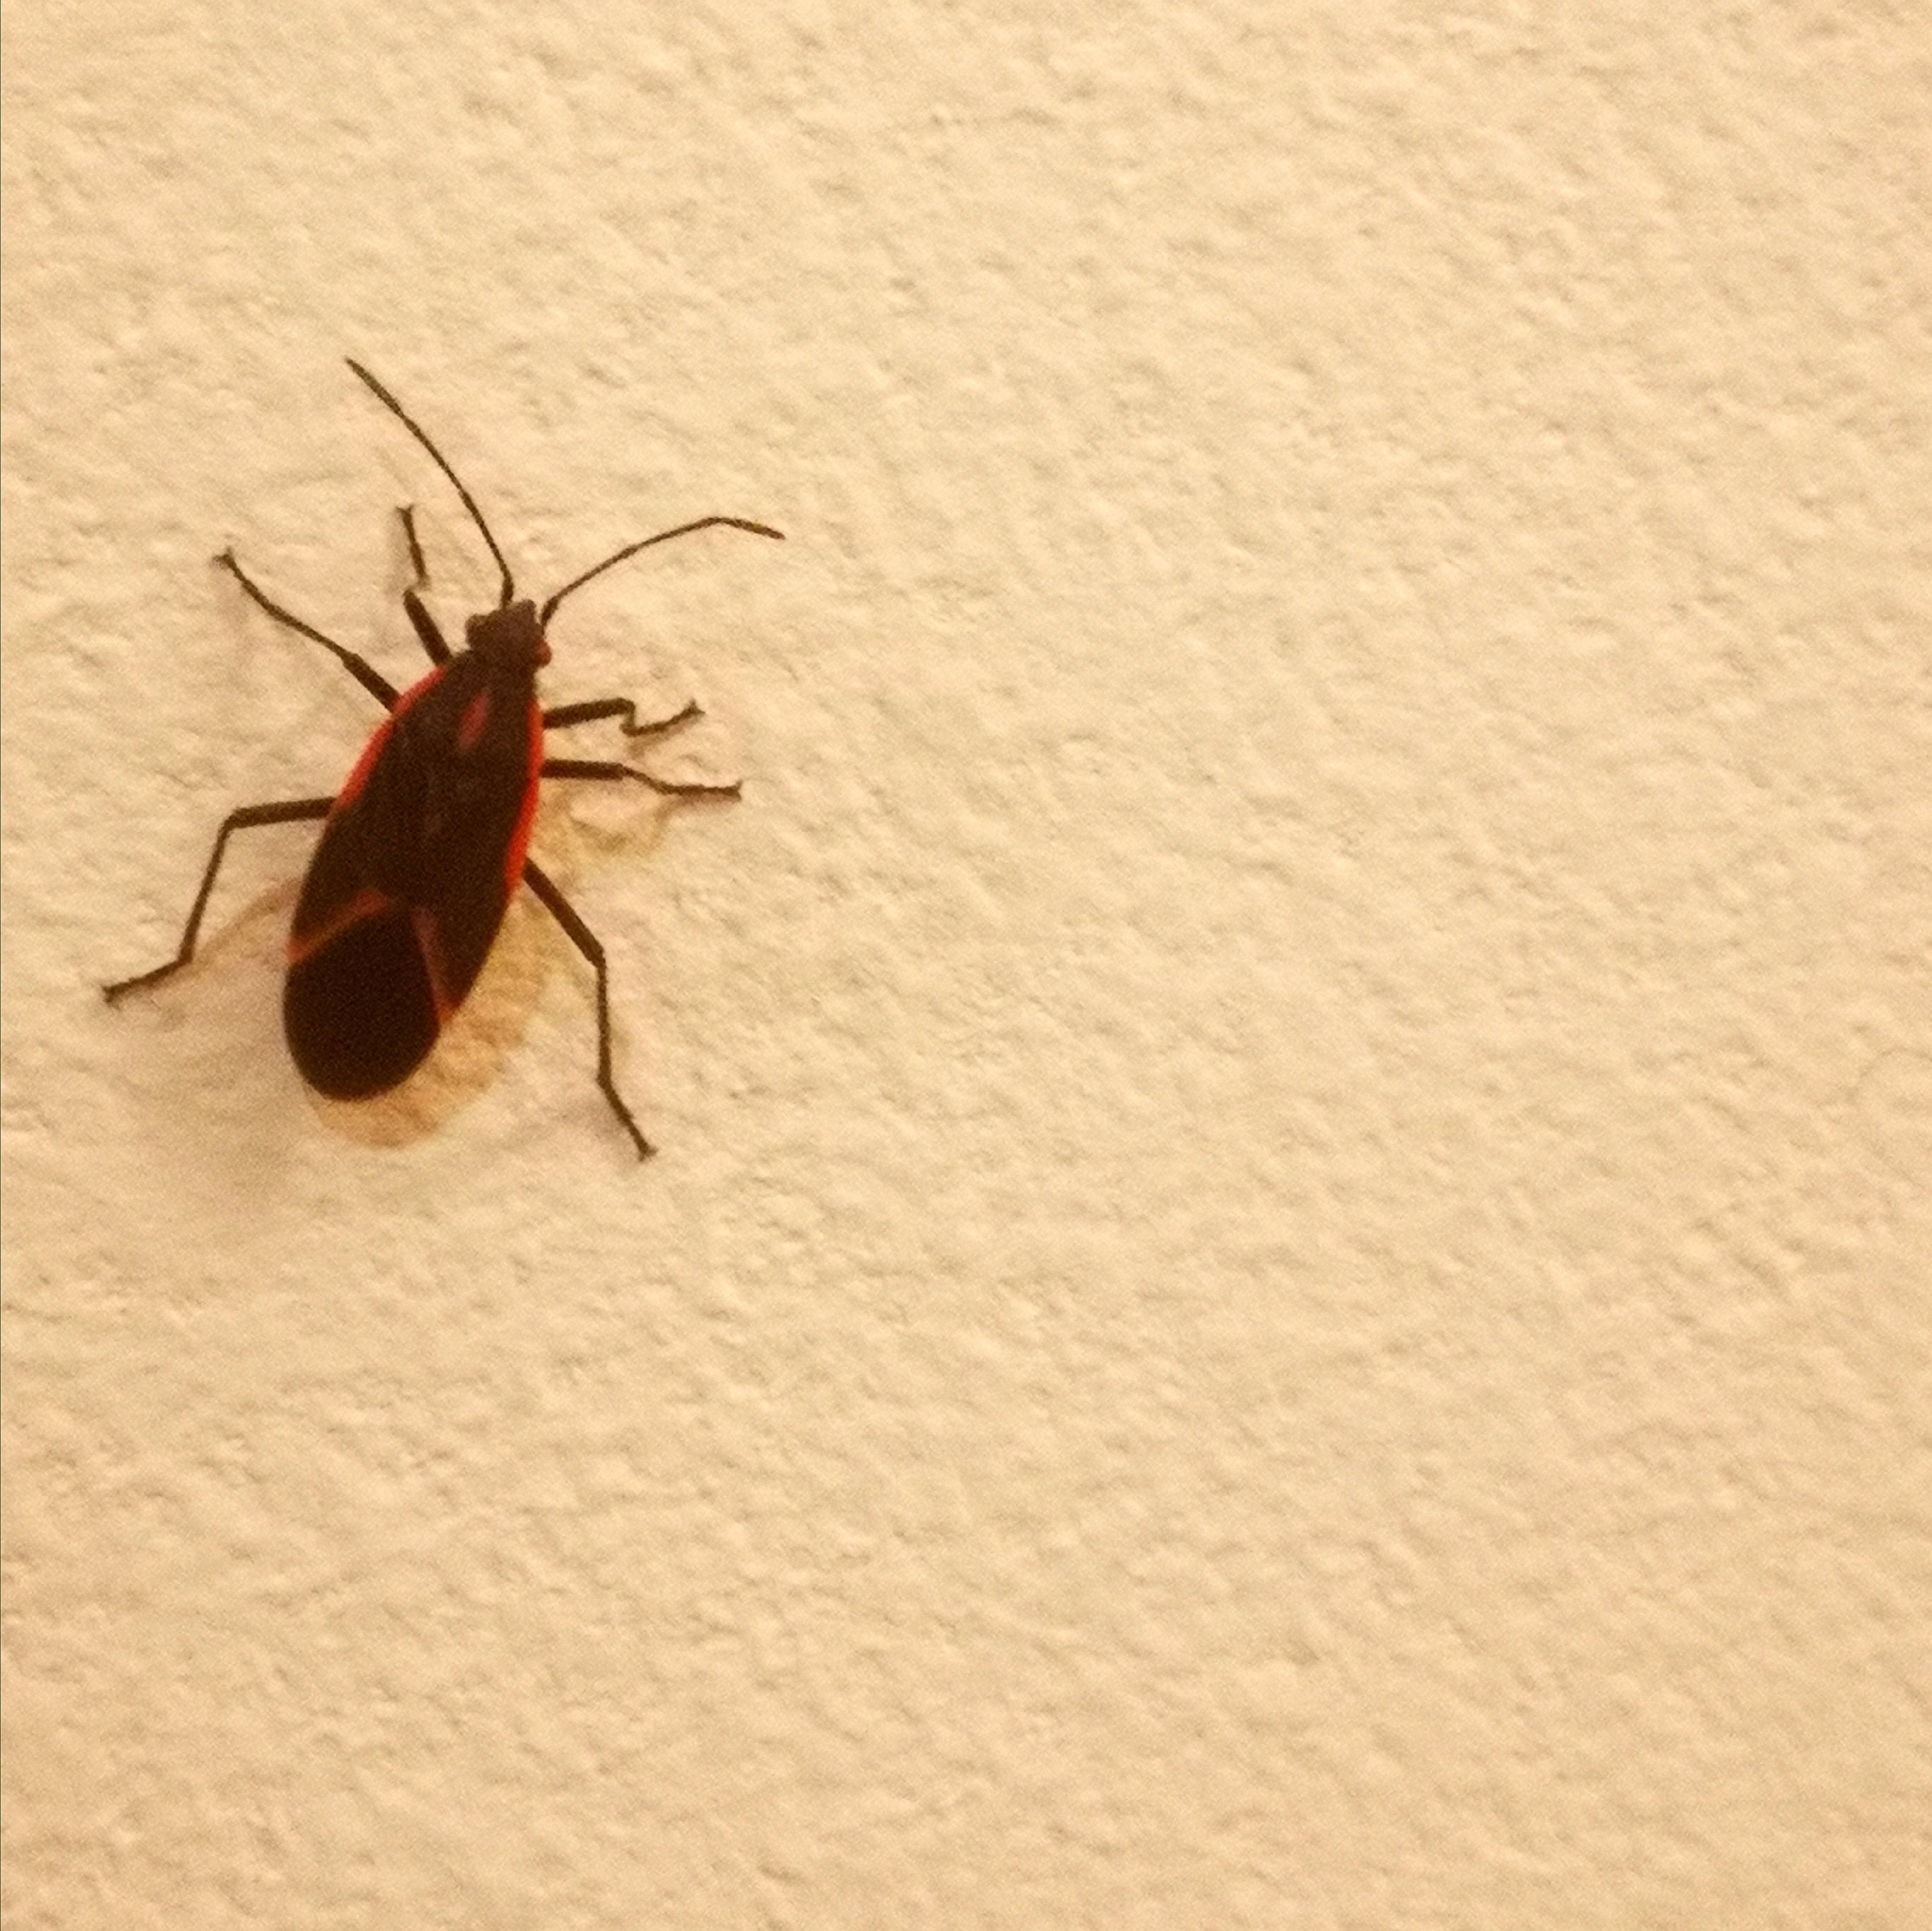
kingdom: Animalia
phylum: Arthropoda
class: Insecta
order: Hemiptera
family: Rhopalidae
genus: Boisea
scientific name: Boisea trivittata
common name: Boxelder bug
